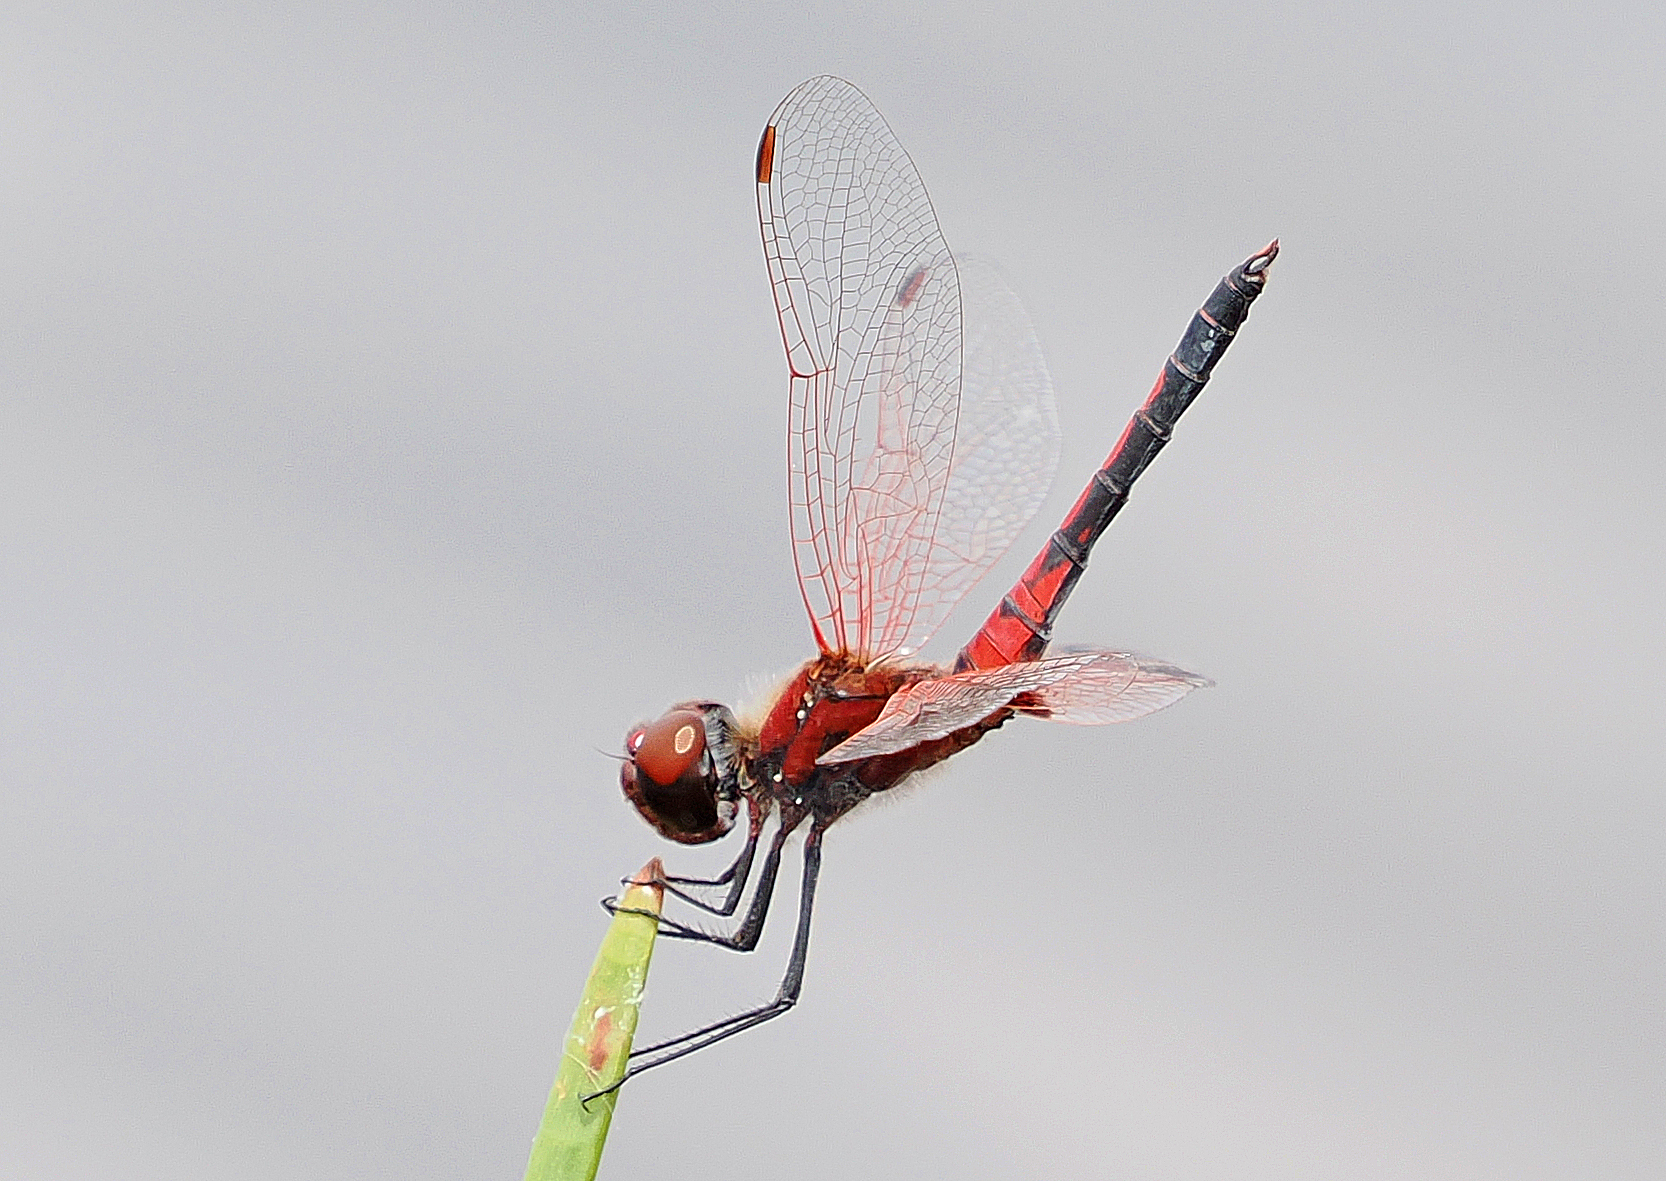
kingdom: Animalia
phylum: Arthropoda
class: Insecta
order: Odonata
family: Libellulidae
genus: Celithemis
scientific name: Celithemis bertha
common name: Red-veined pennant
